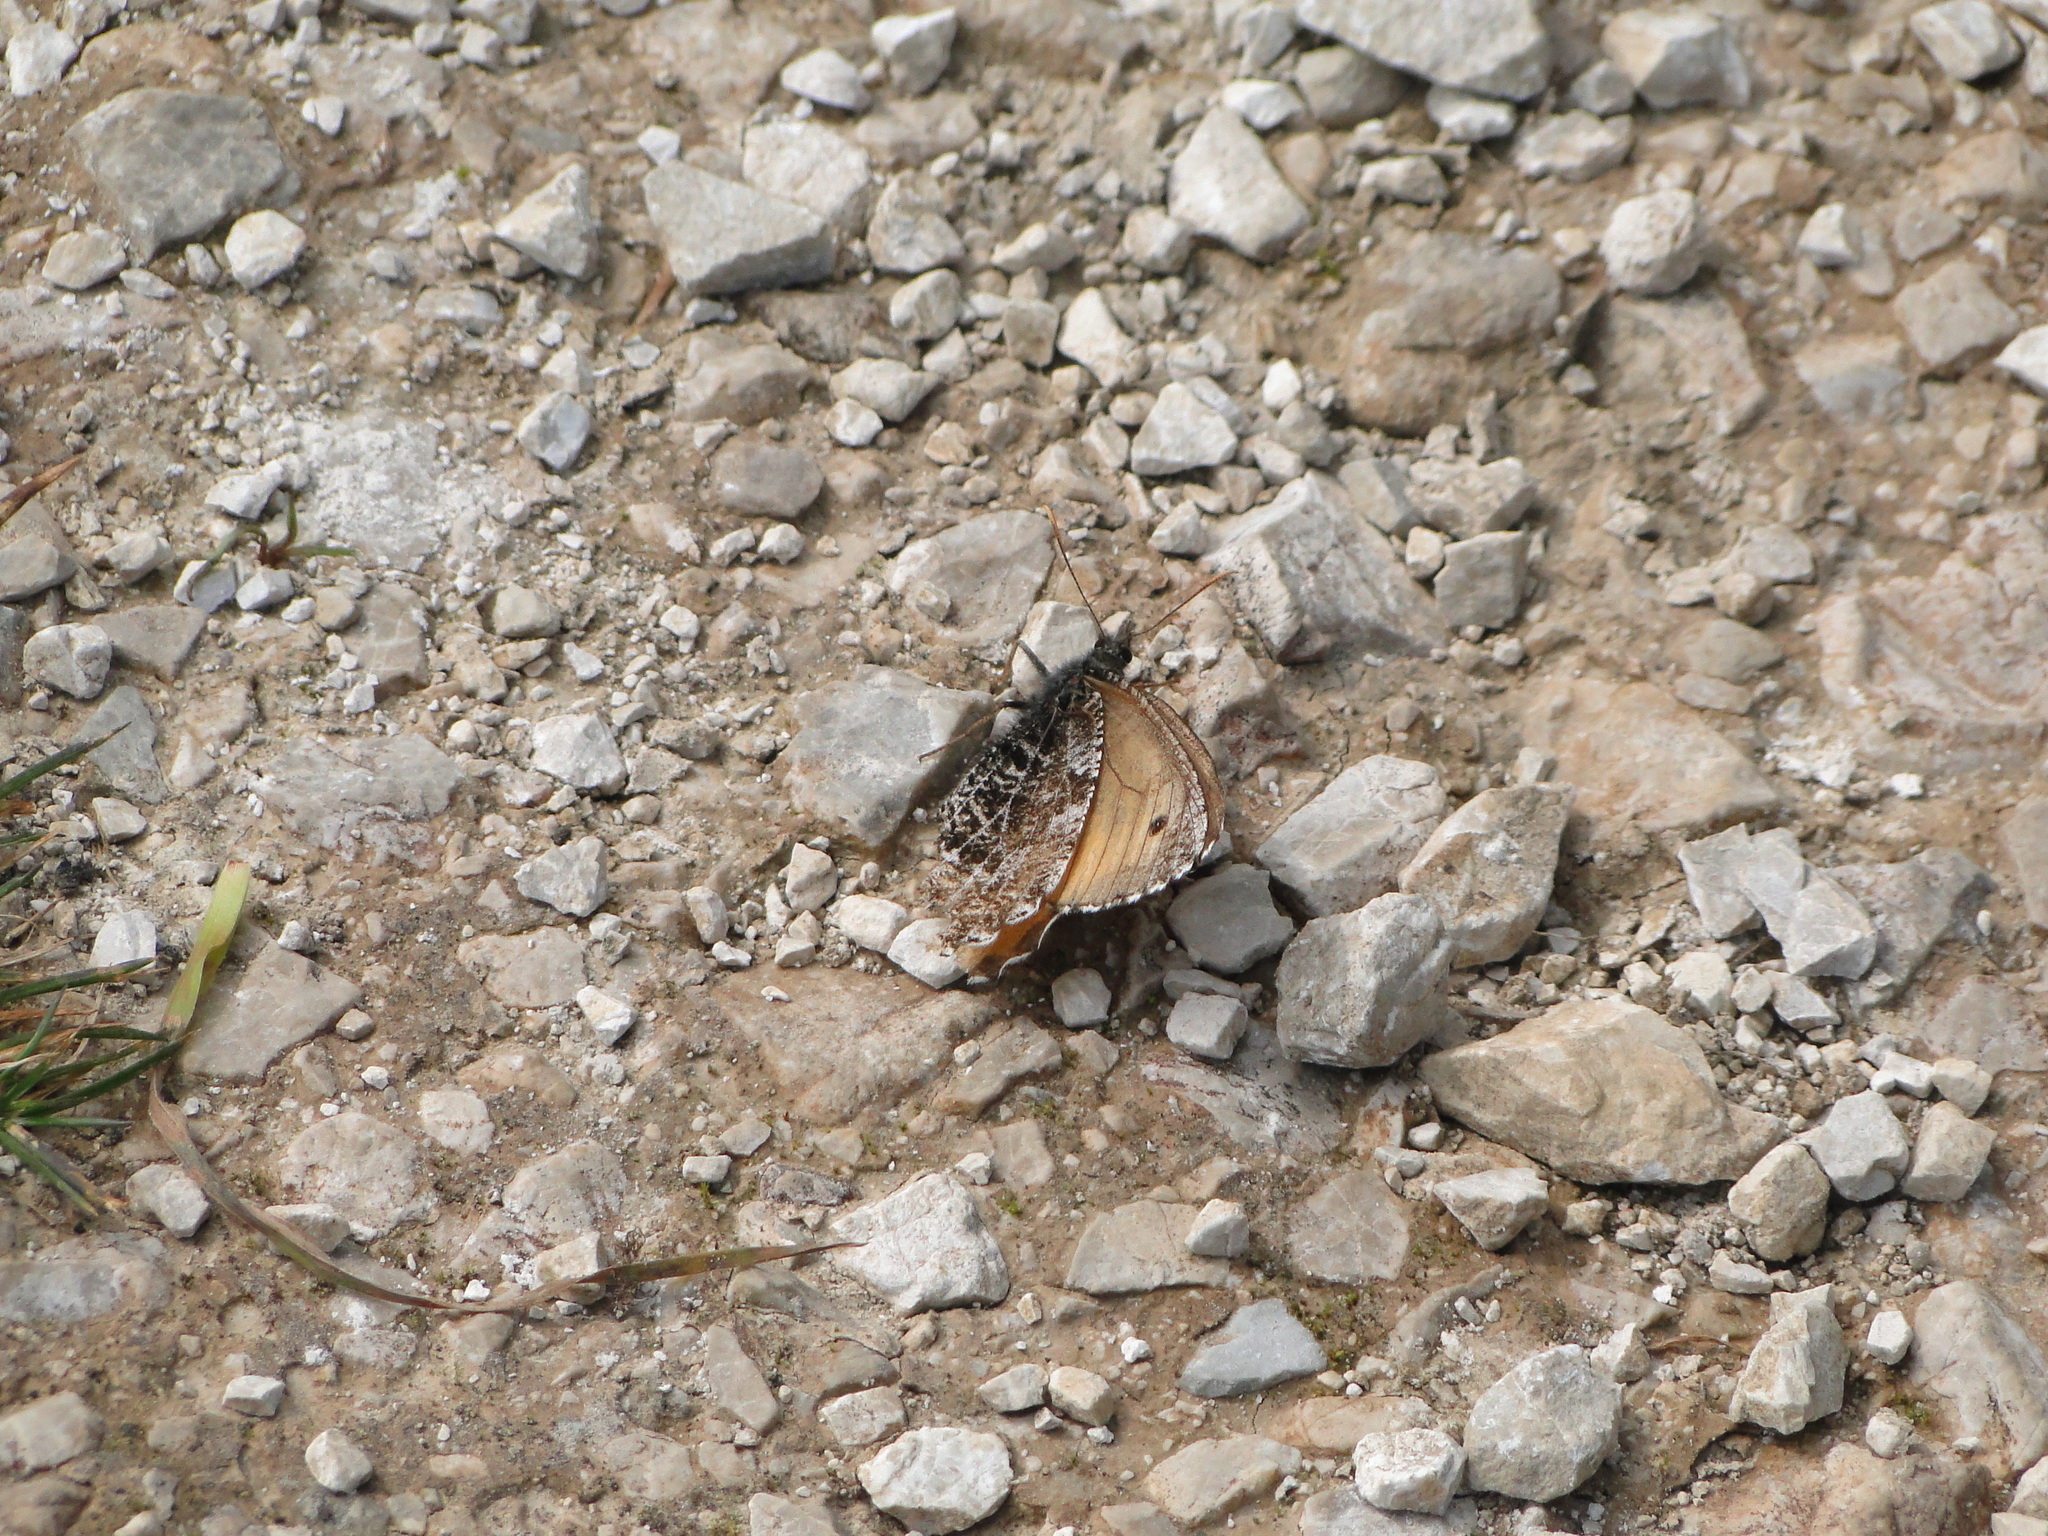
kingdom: Animalia
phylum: Arthropoda
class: Insecta
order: Lepidoptera
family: Nymphalidae
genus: Oeneis
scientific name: Oeneis aello
